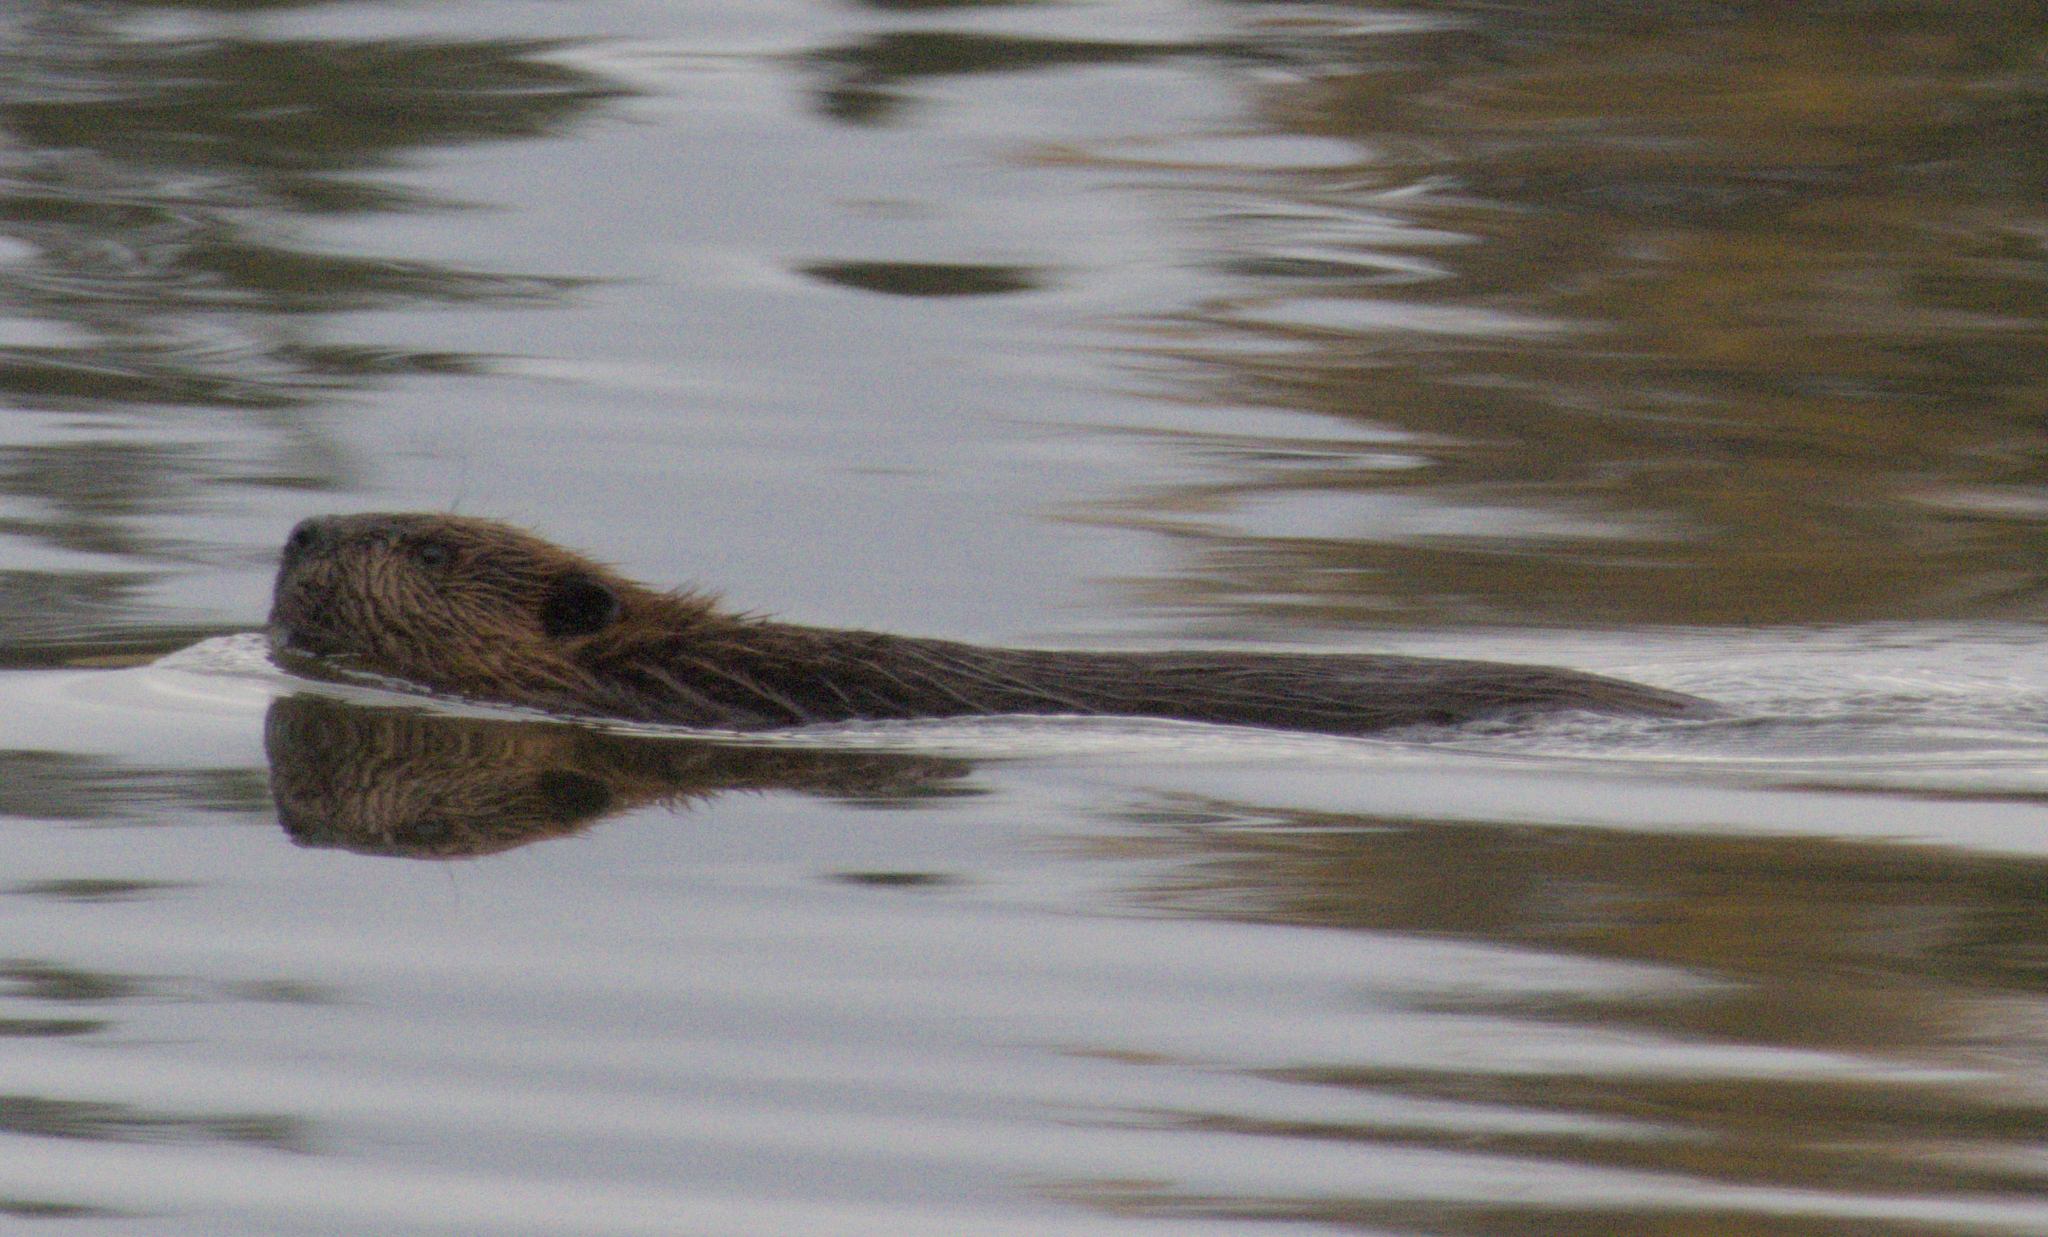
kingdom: Animalia
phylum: Chordata
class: Mammalia
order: Rodentia
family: Castoridae
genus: Castor
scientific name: Castor canadensis
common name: American beaver
